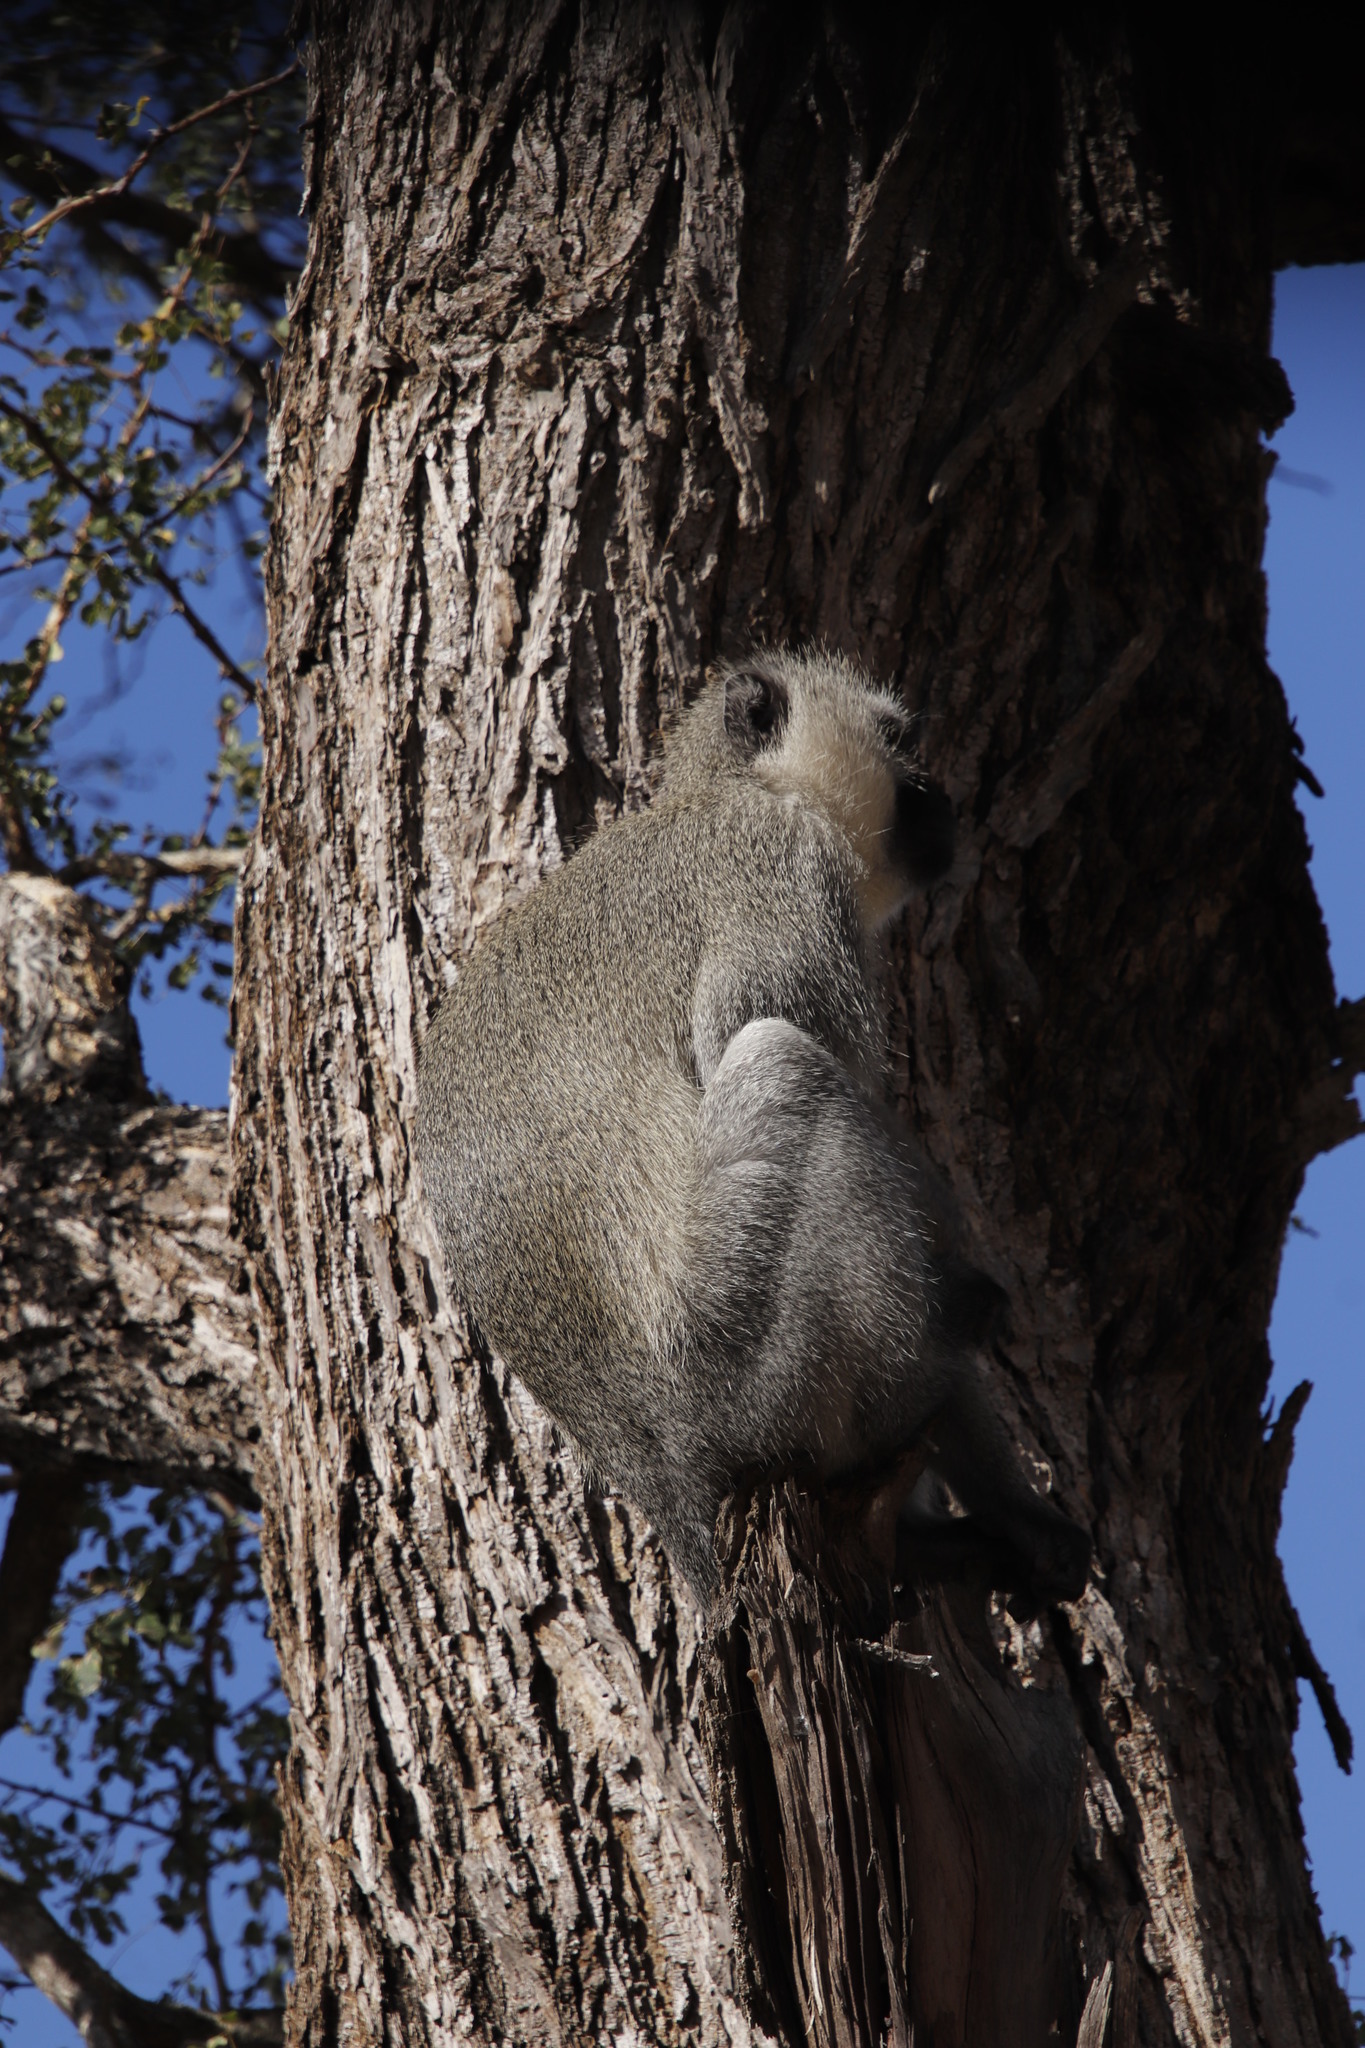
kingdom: Animalia
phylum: Chordata
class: Mammalia
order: Primates
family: Cercopithecidae
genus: Chlorocebus
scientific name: Chlorocebus pygerythrus
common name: Vervet monkey
